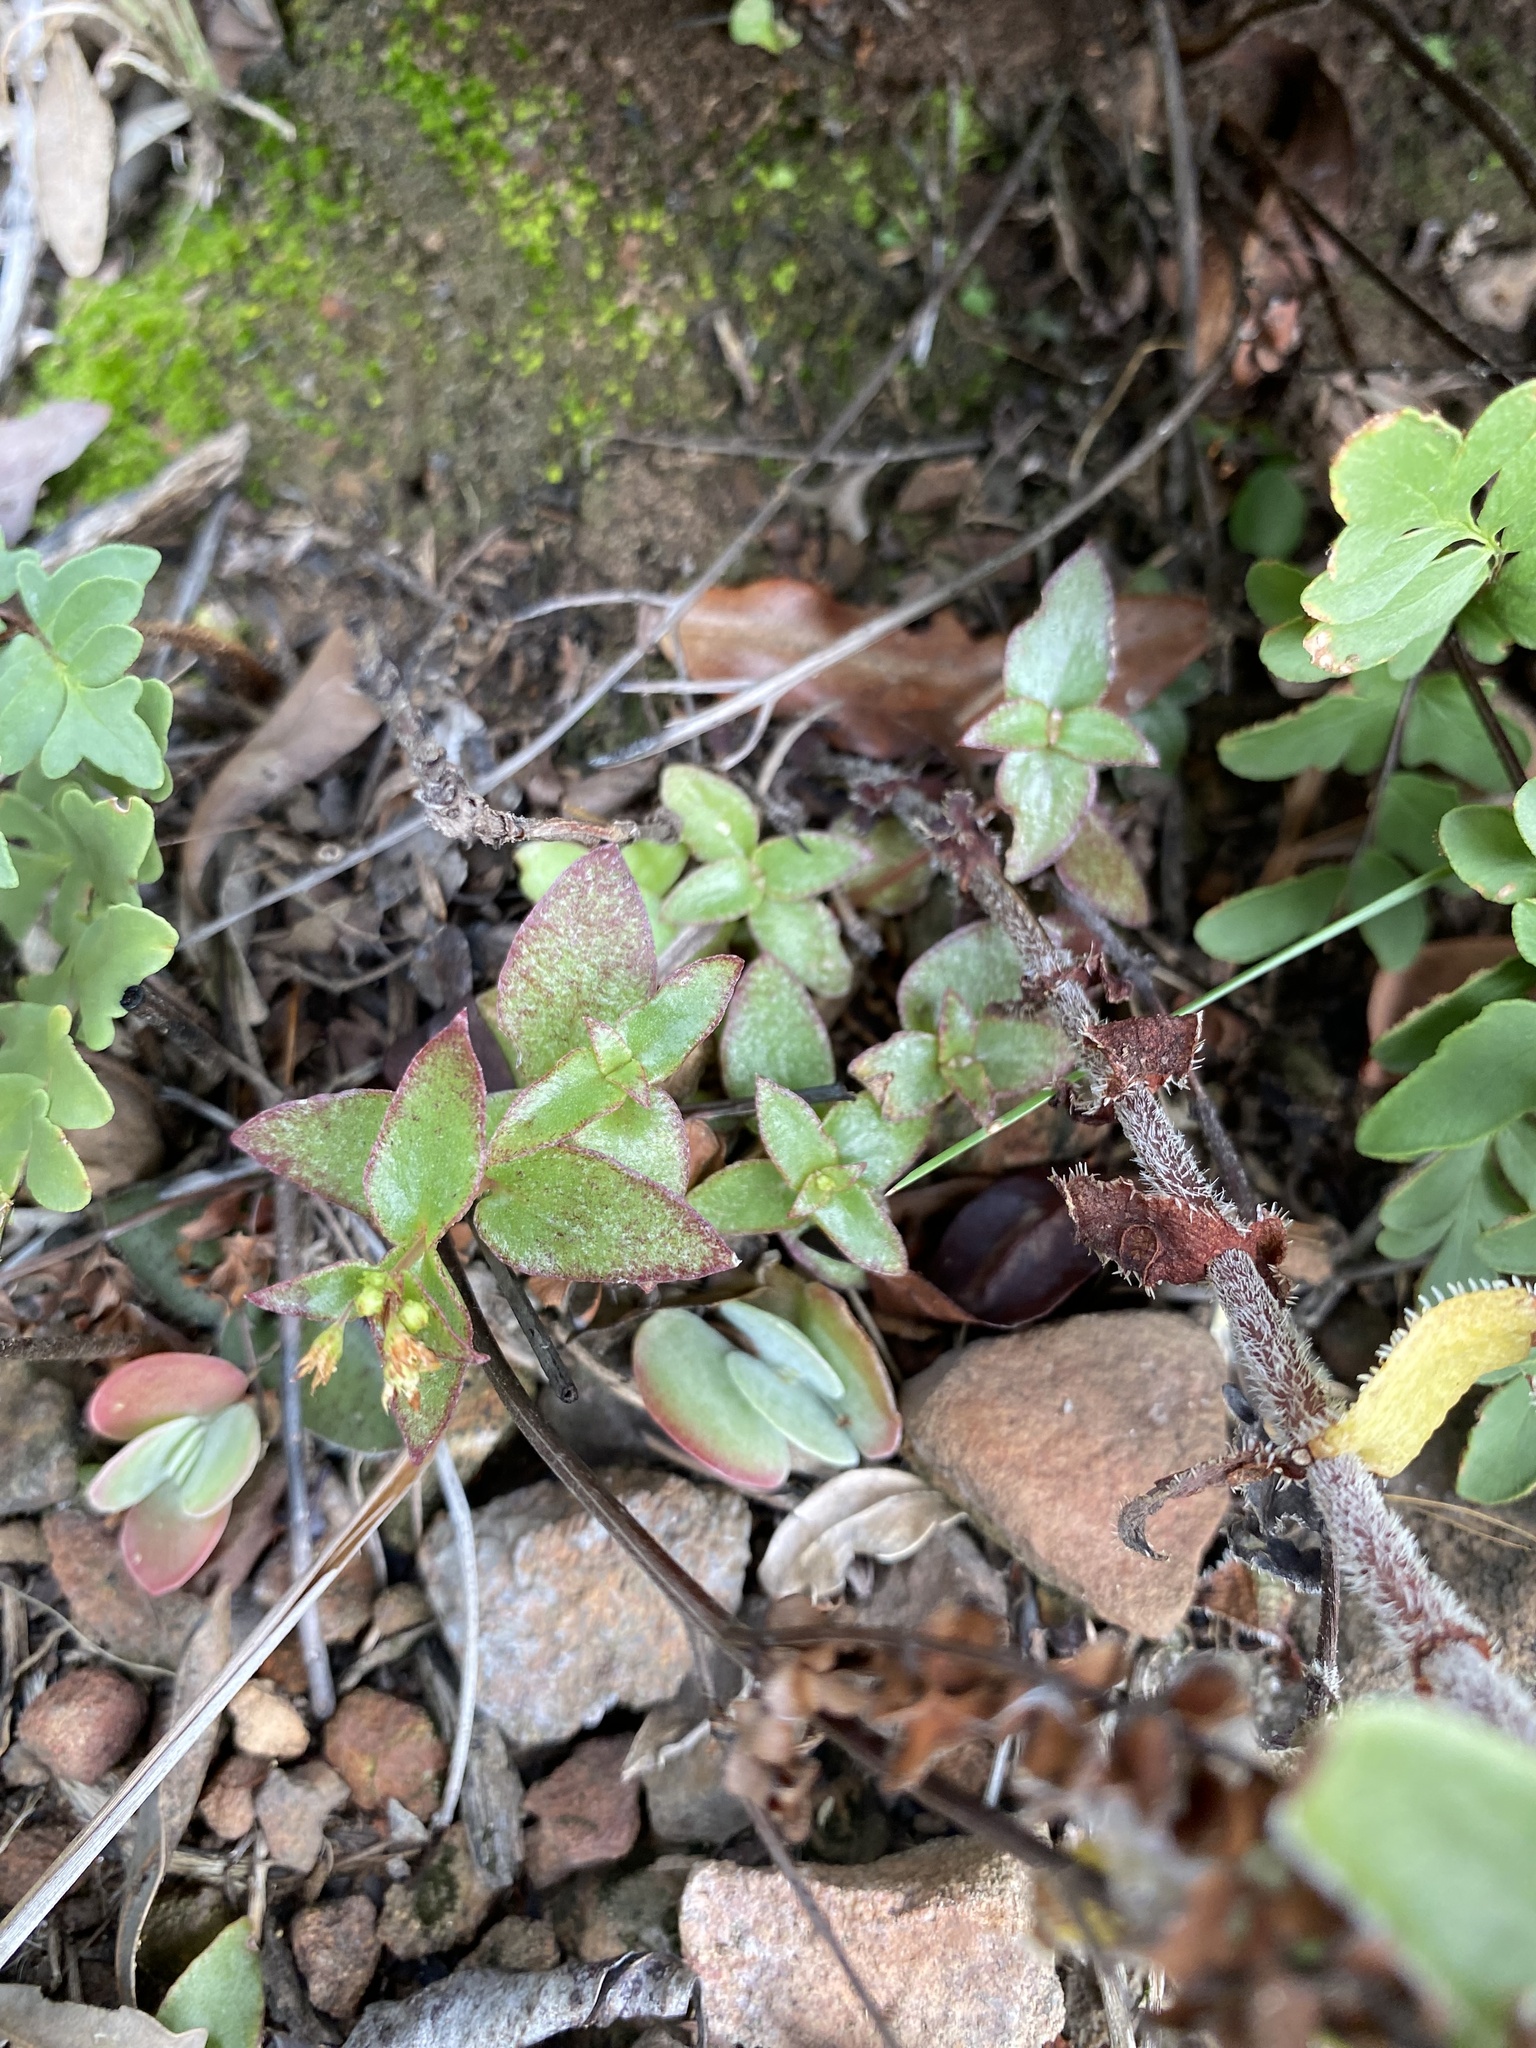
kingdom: Plantae
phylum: Tracheophyta
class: Magnoliopsida
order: Saxifragales
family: Crassulaceae
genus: Crassula
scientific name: Crassula pellucida
